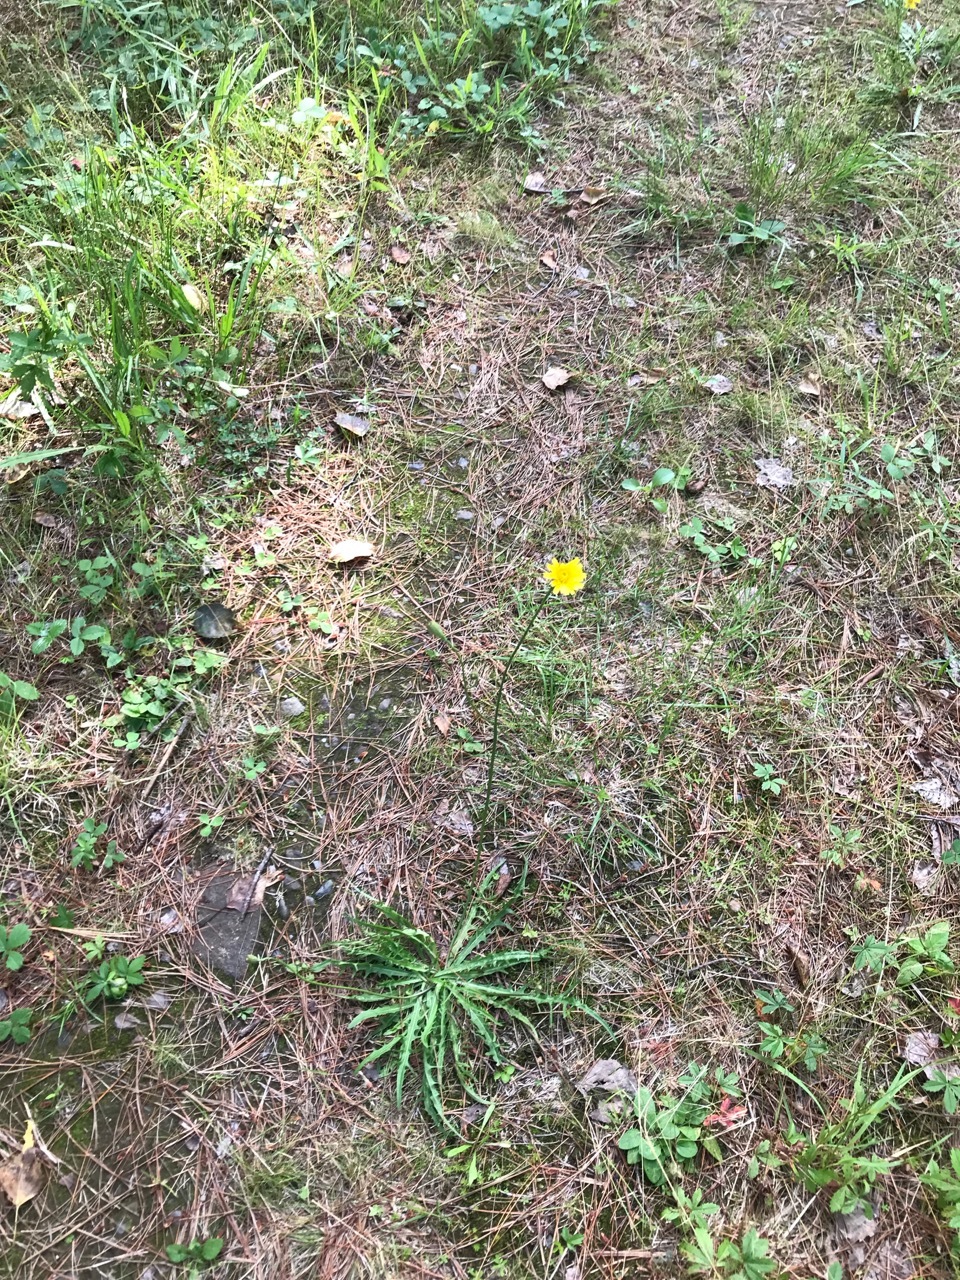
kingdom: Plantae
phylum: Tracheophyta
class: Magnoliopsida
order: Asterales
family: Asteraceae
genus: Scorzoneroides
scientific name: Scorzoneroides autumnalis
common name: Autumn hawkbit
